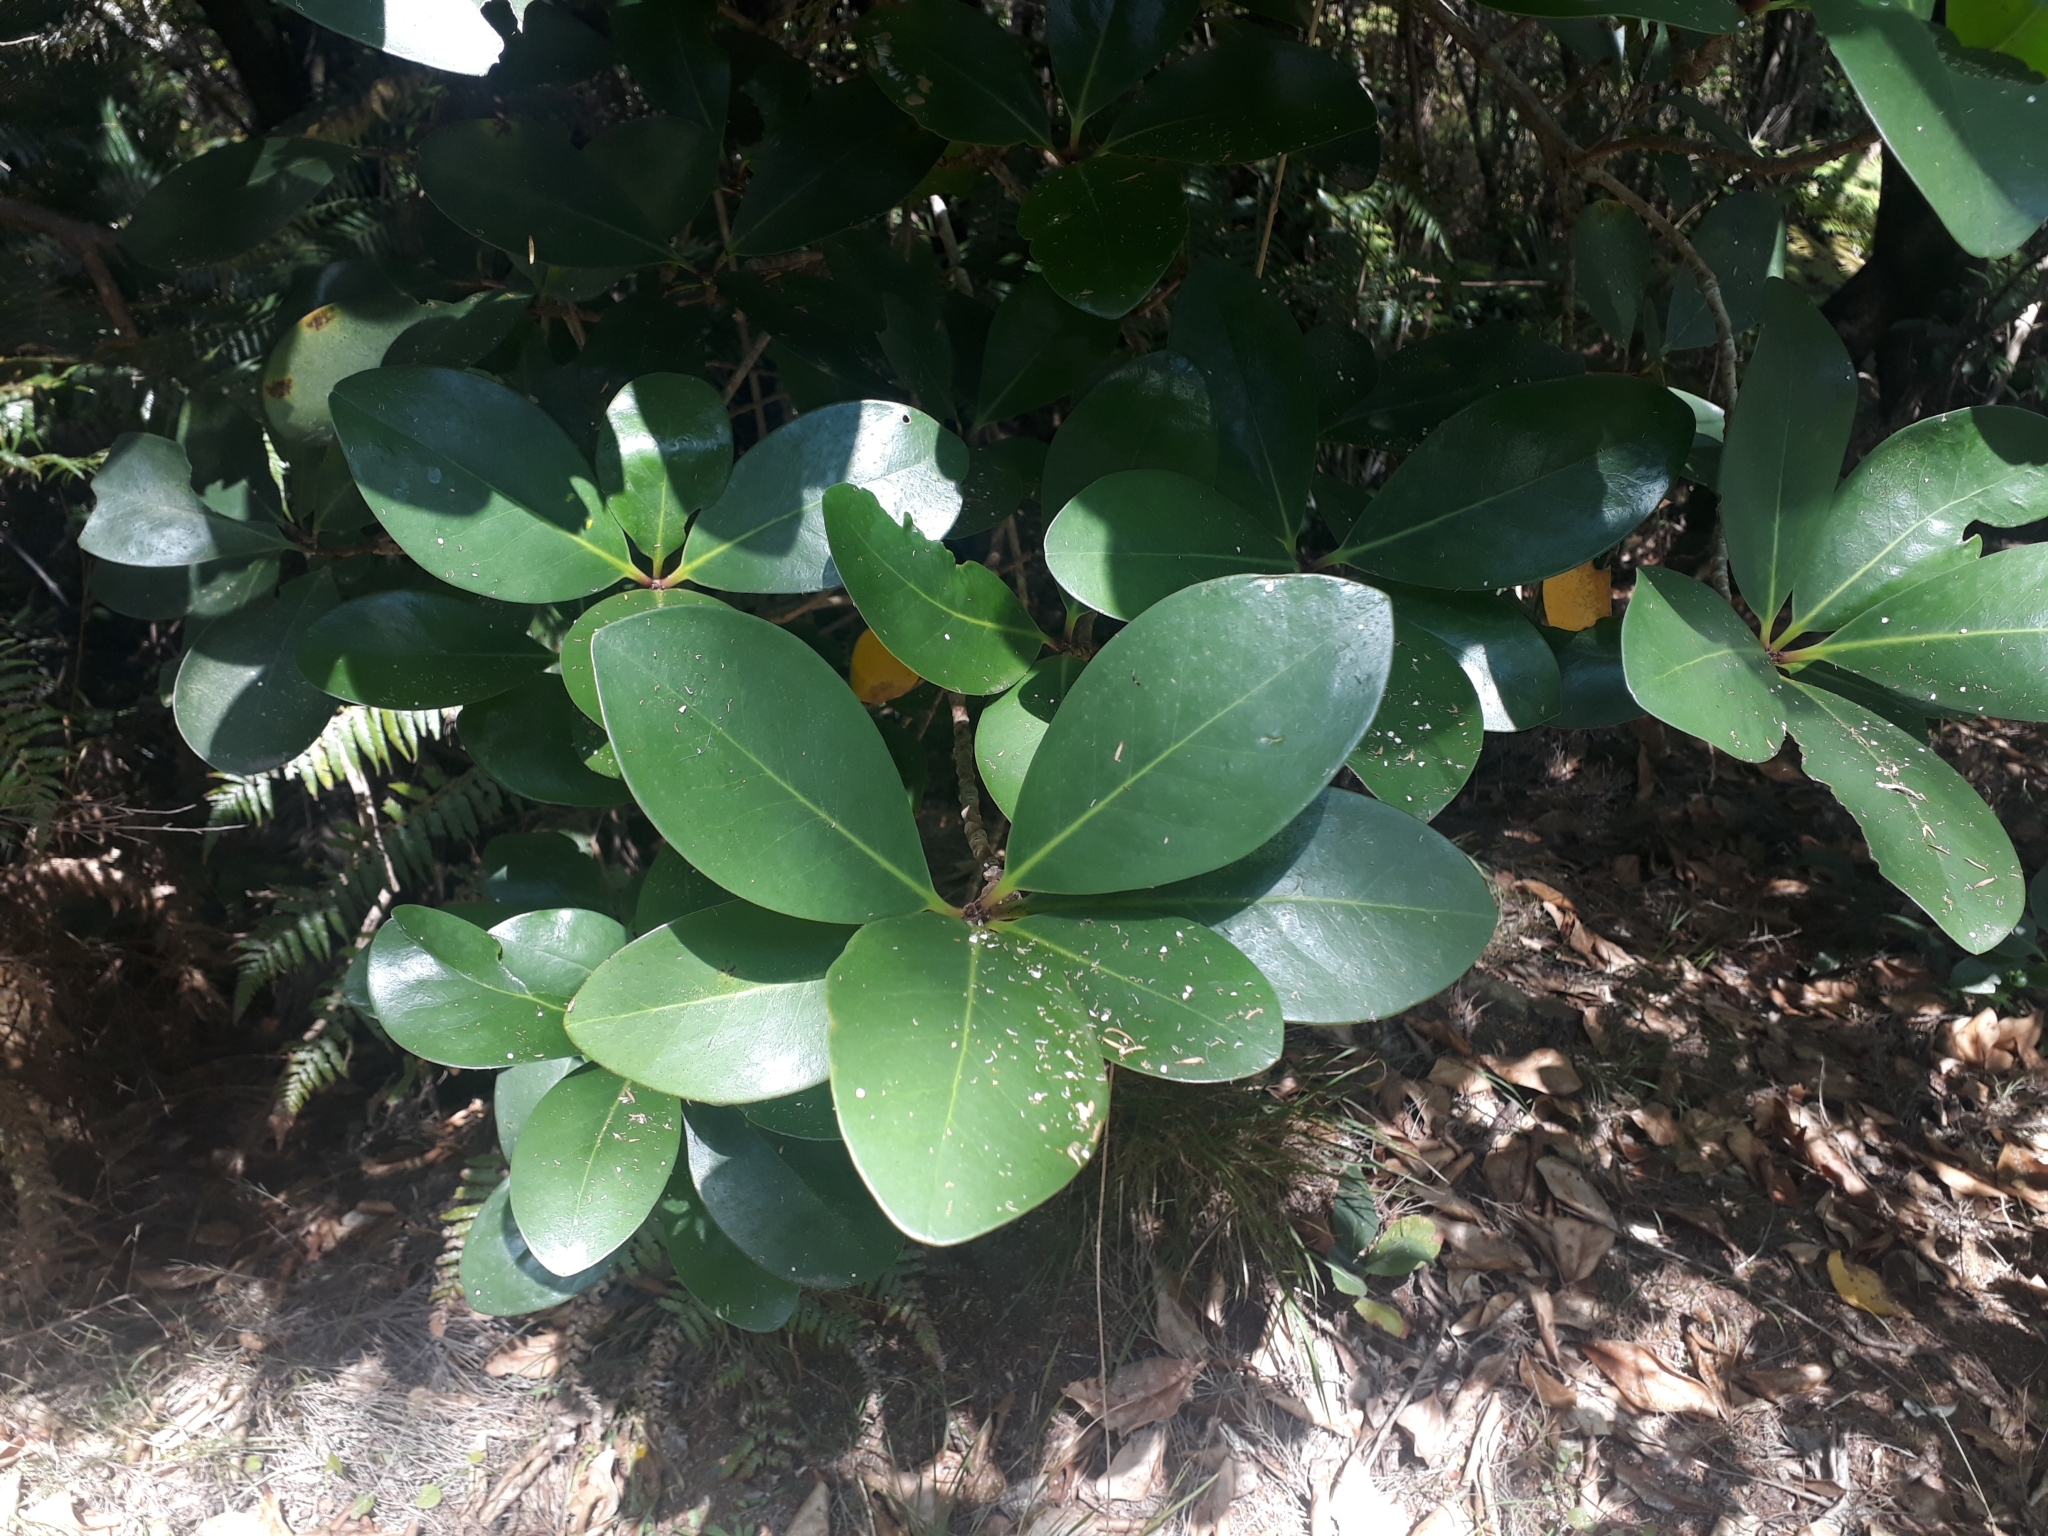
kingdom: Plantae
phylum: Tracheophyta
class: Magnoliopsida
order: Cucurbitales
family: Corynocarpaceae
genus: Corynocarpus
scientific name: Corynocarpus laevigatus
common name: New zealand laurel
